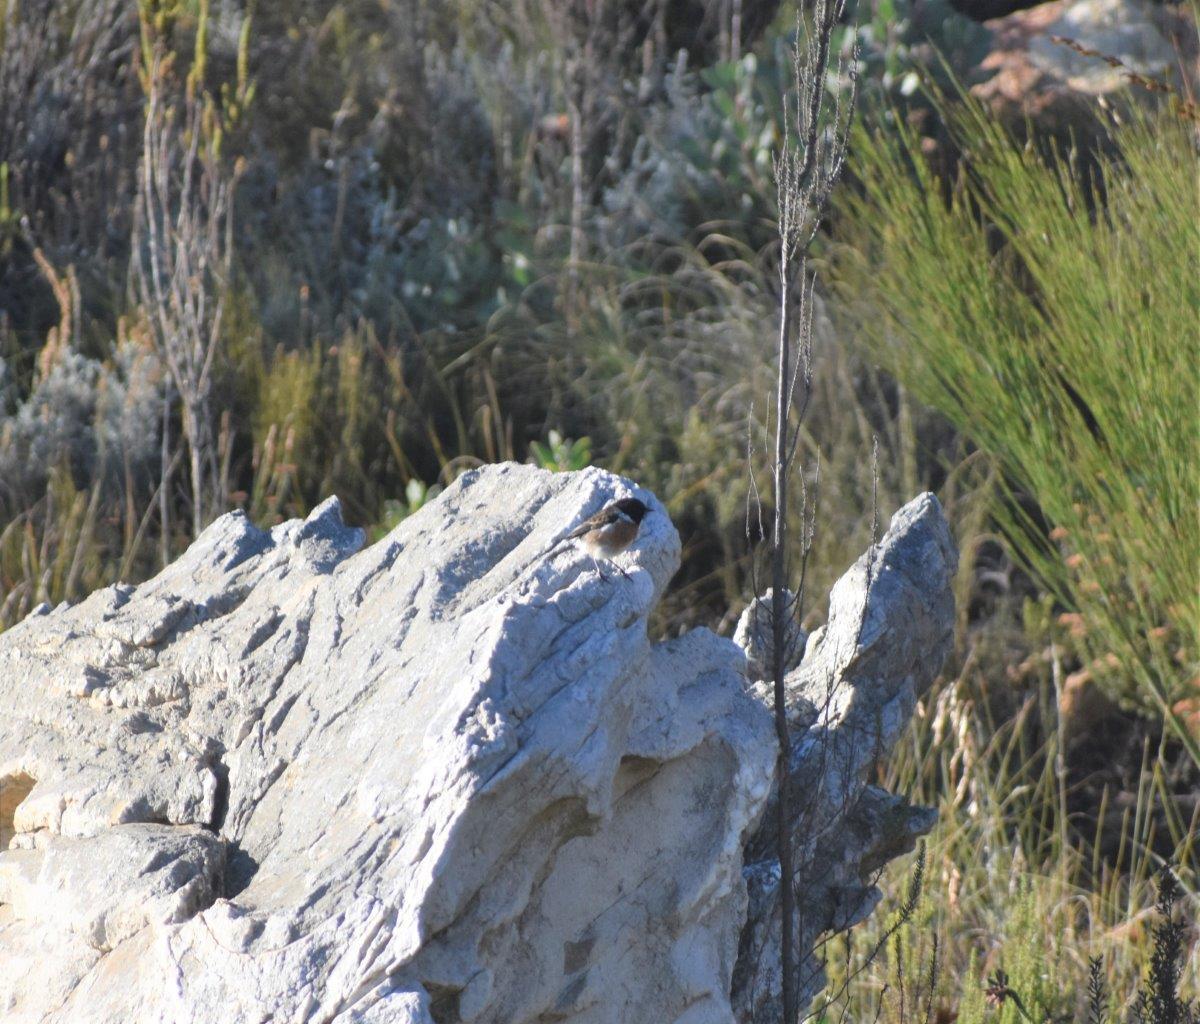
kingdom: Animalia
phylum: Chordata
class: Aves
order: Passeriformes
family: Muscicapidae
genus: Saxicola
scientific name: Saxicola torquatus
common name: African stonechat
